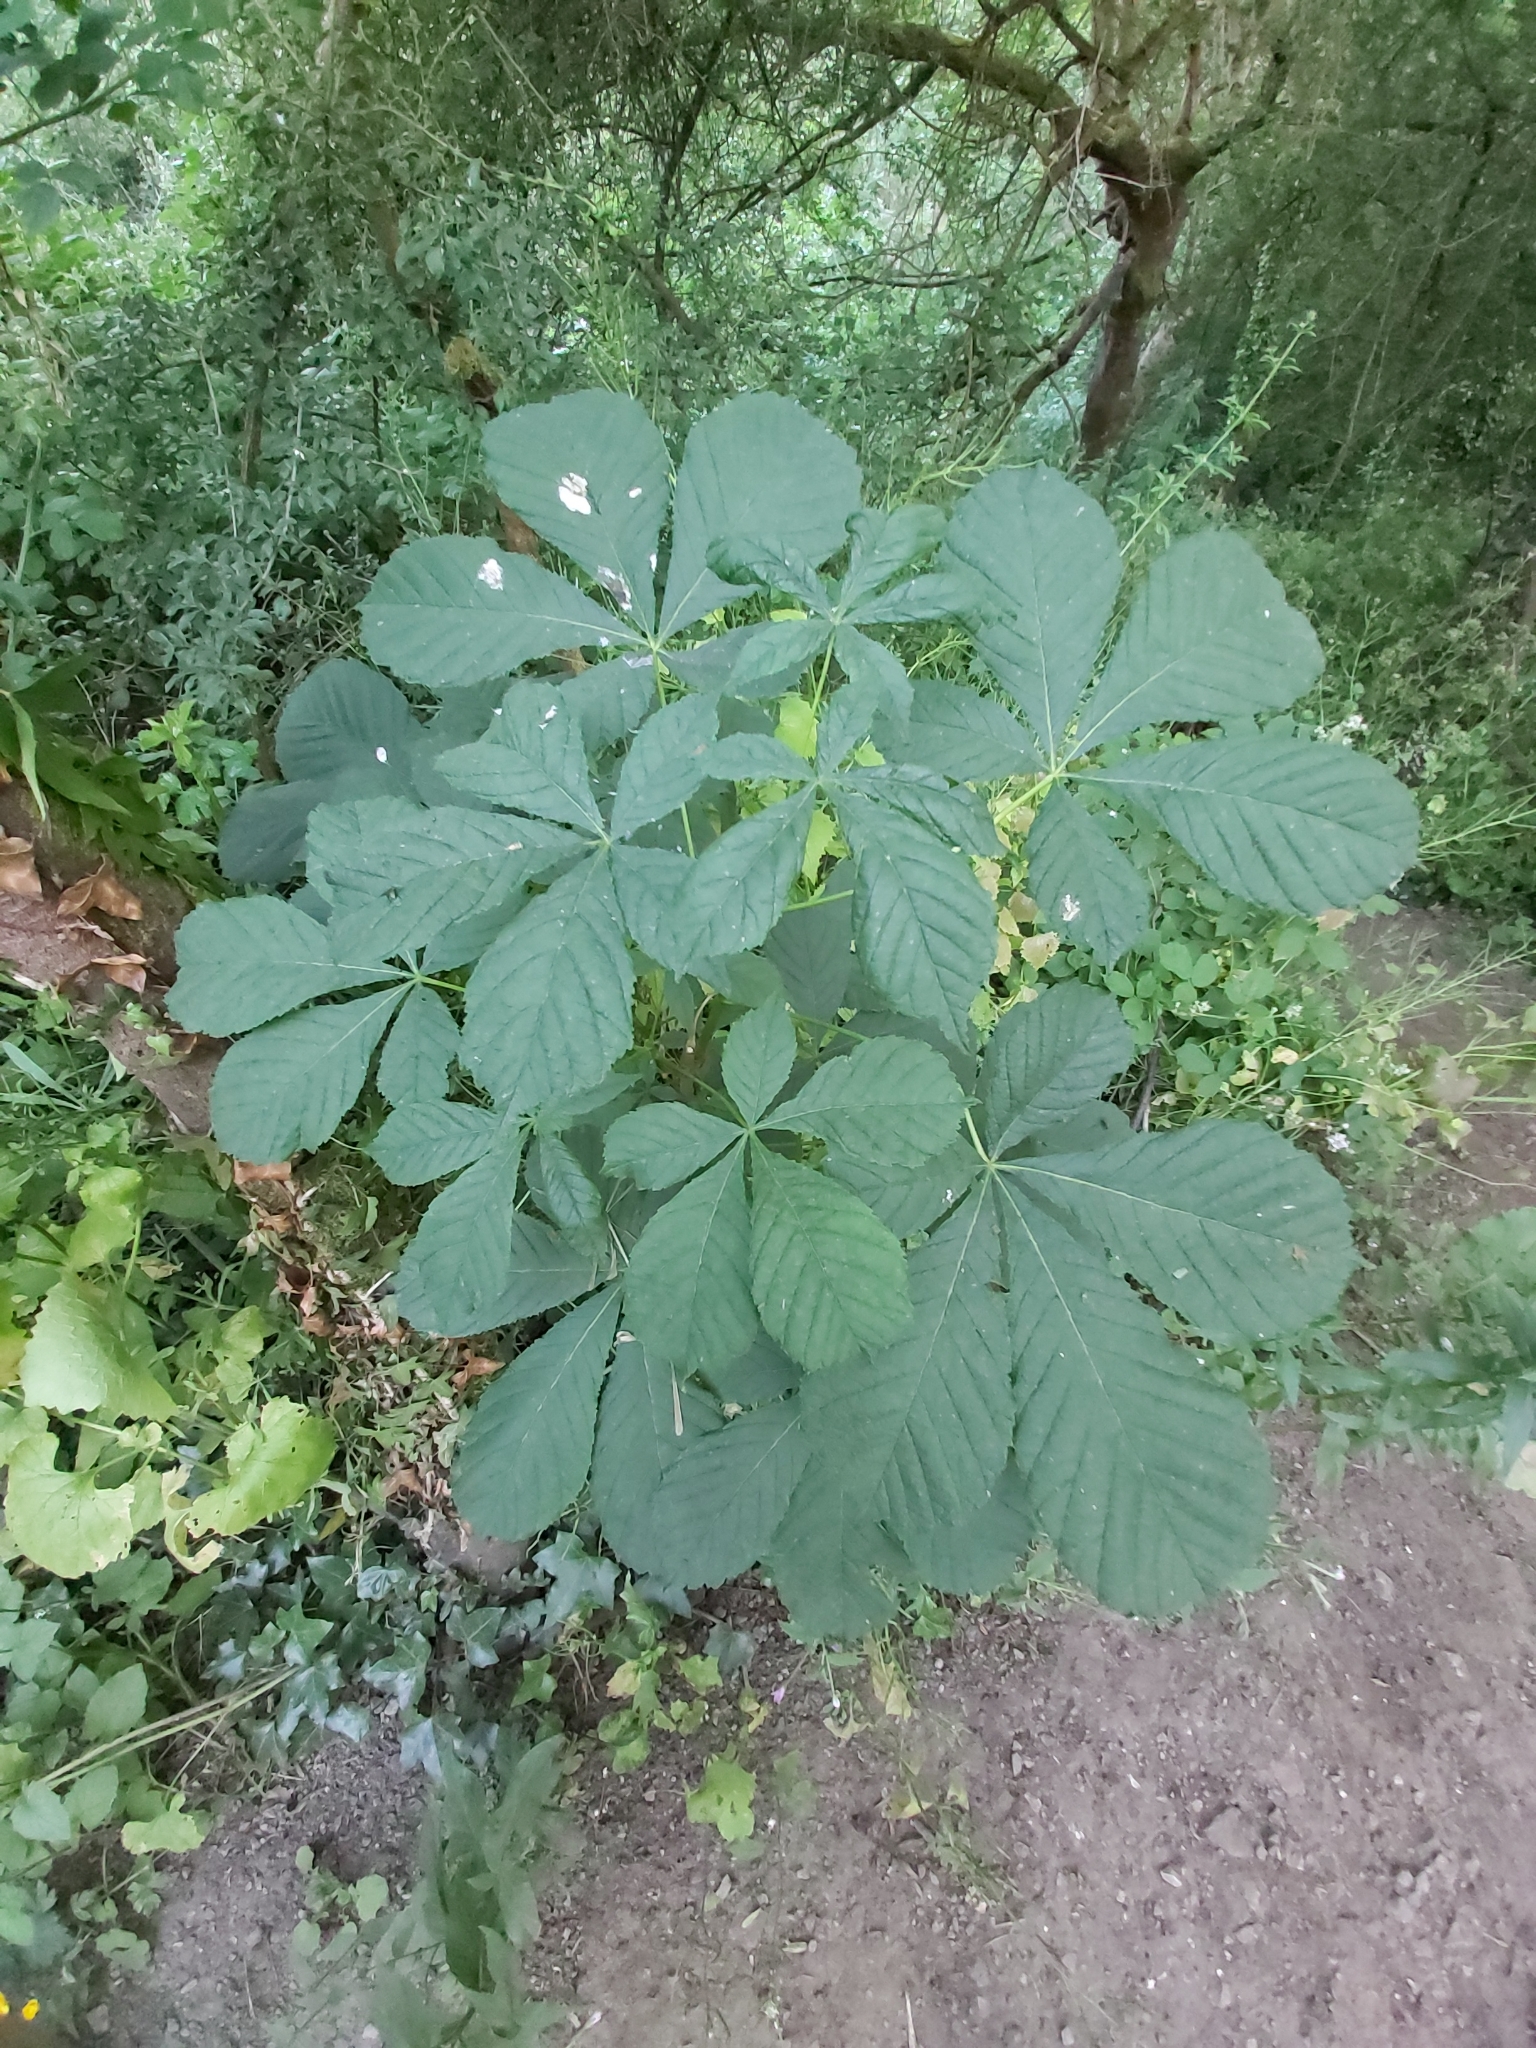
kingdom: Plantae
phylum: Tracheophyta
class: Magnoliopsida
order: Sapindales
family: Sapindaceae
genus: Aesculus
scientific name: Aesculus hippocastanum
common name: Horse-chestnut
